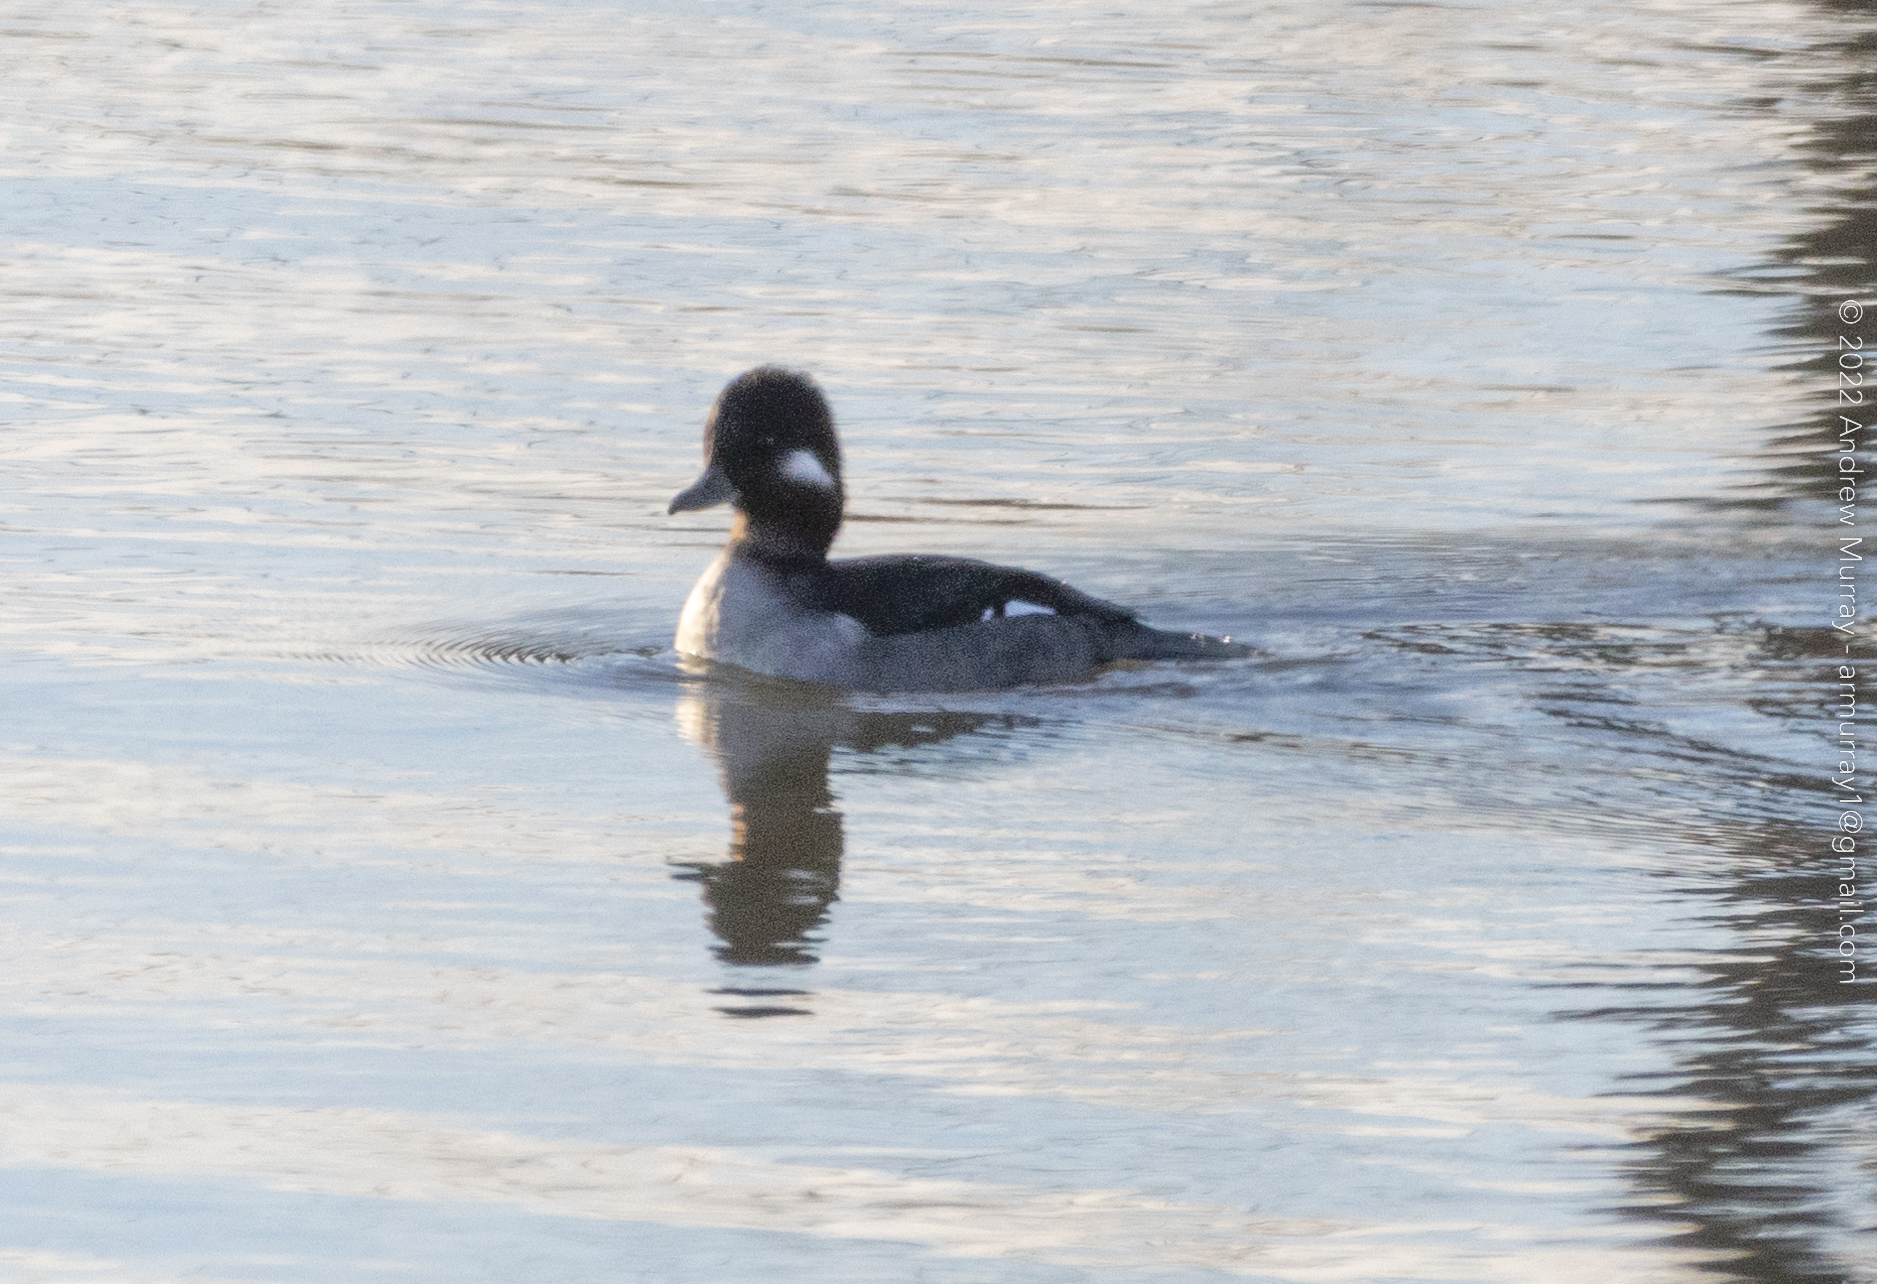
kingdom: Animalia
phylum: Chordata
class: Aves
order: Anseriformes
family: Anatidae
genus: Bucephala
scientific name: Bucephala albeola
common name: Bufflehead
